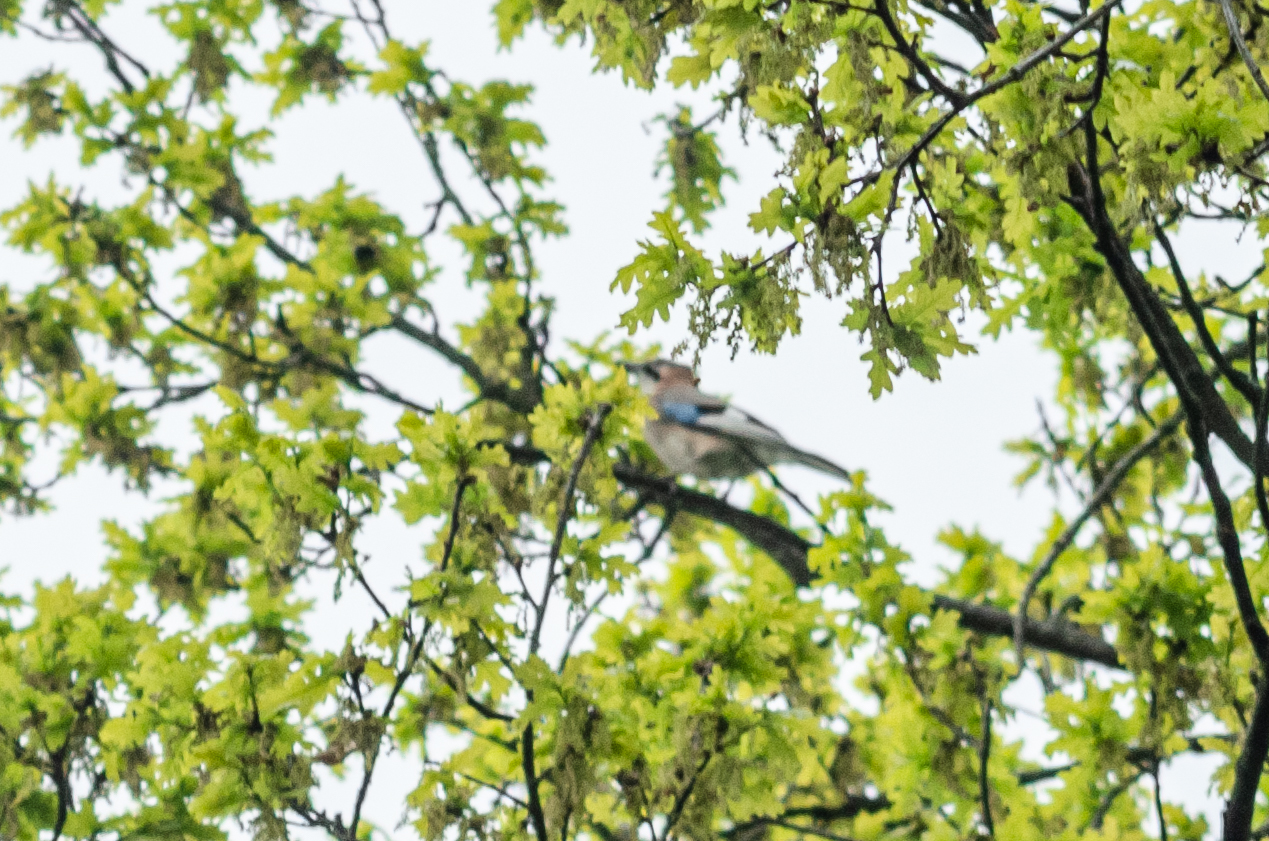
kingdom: Animalia
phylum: Chordata
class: Aves
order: Passeriformes
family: Corvidae
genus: Garrulus
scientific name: Garrulus glandarius
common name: Eurasian jay
